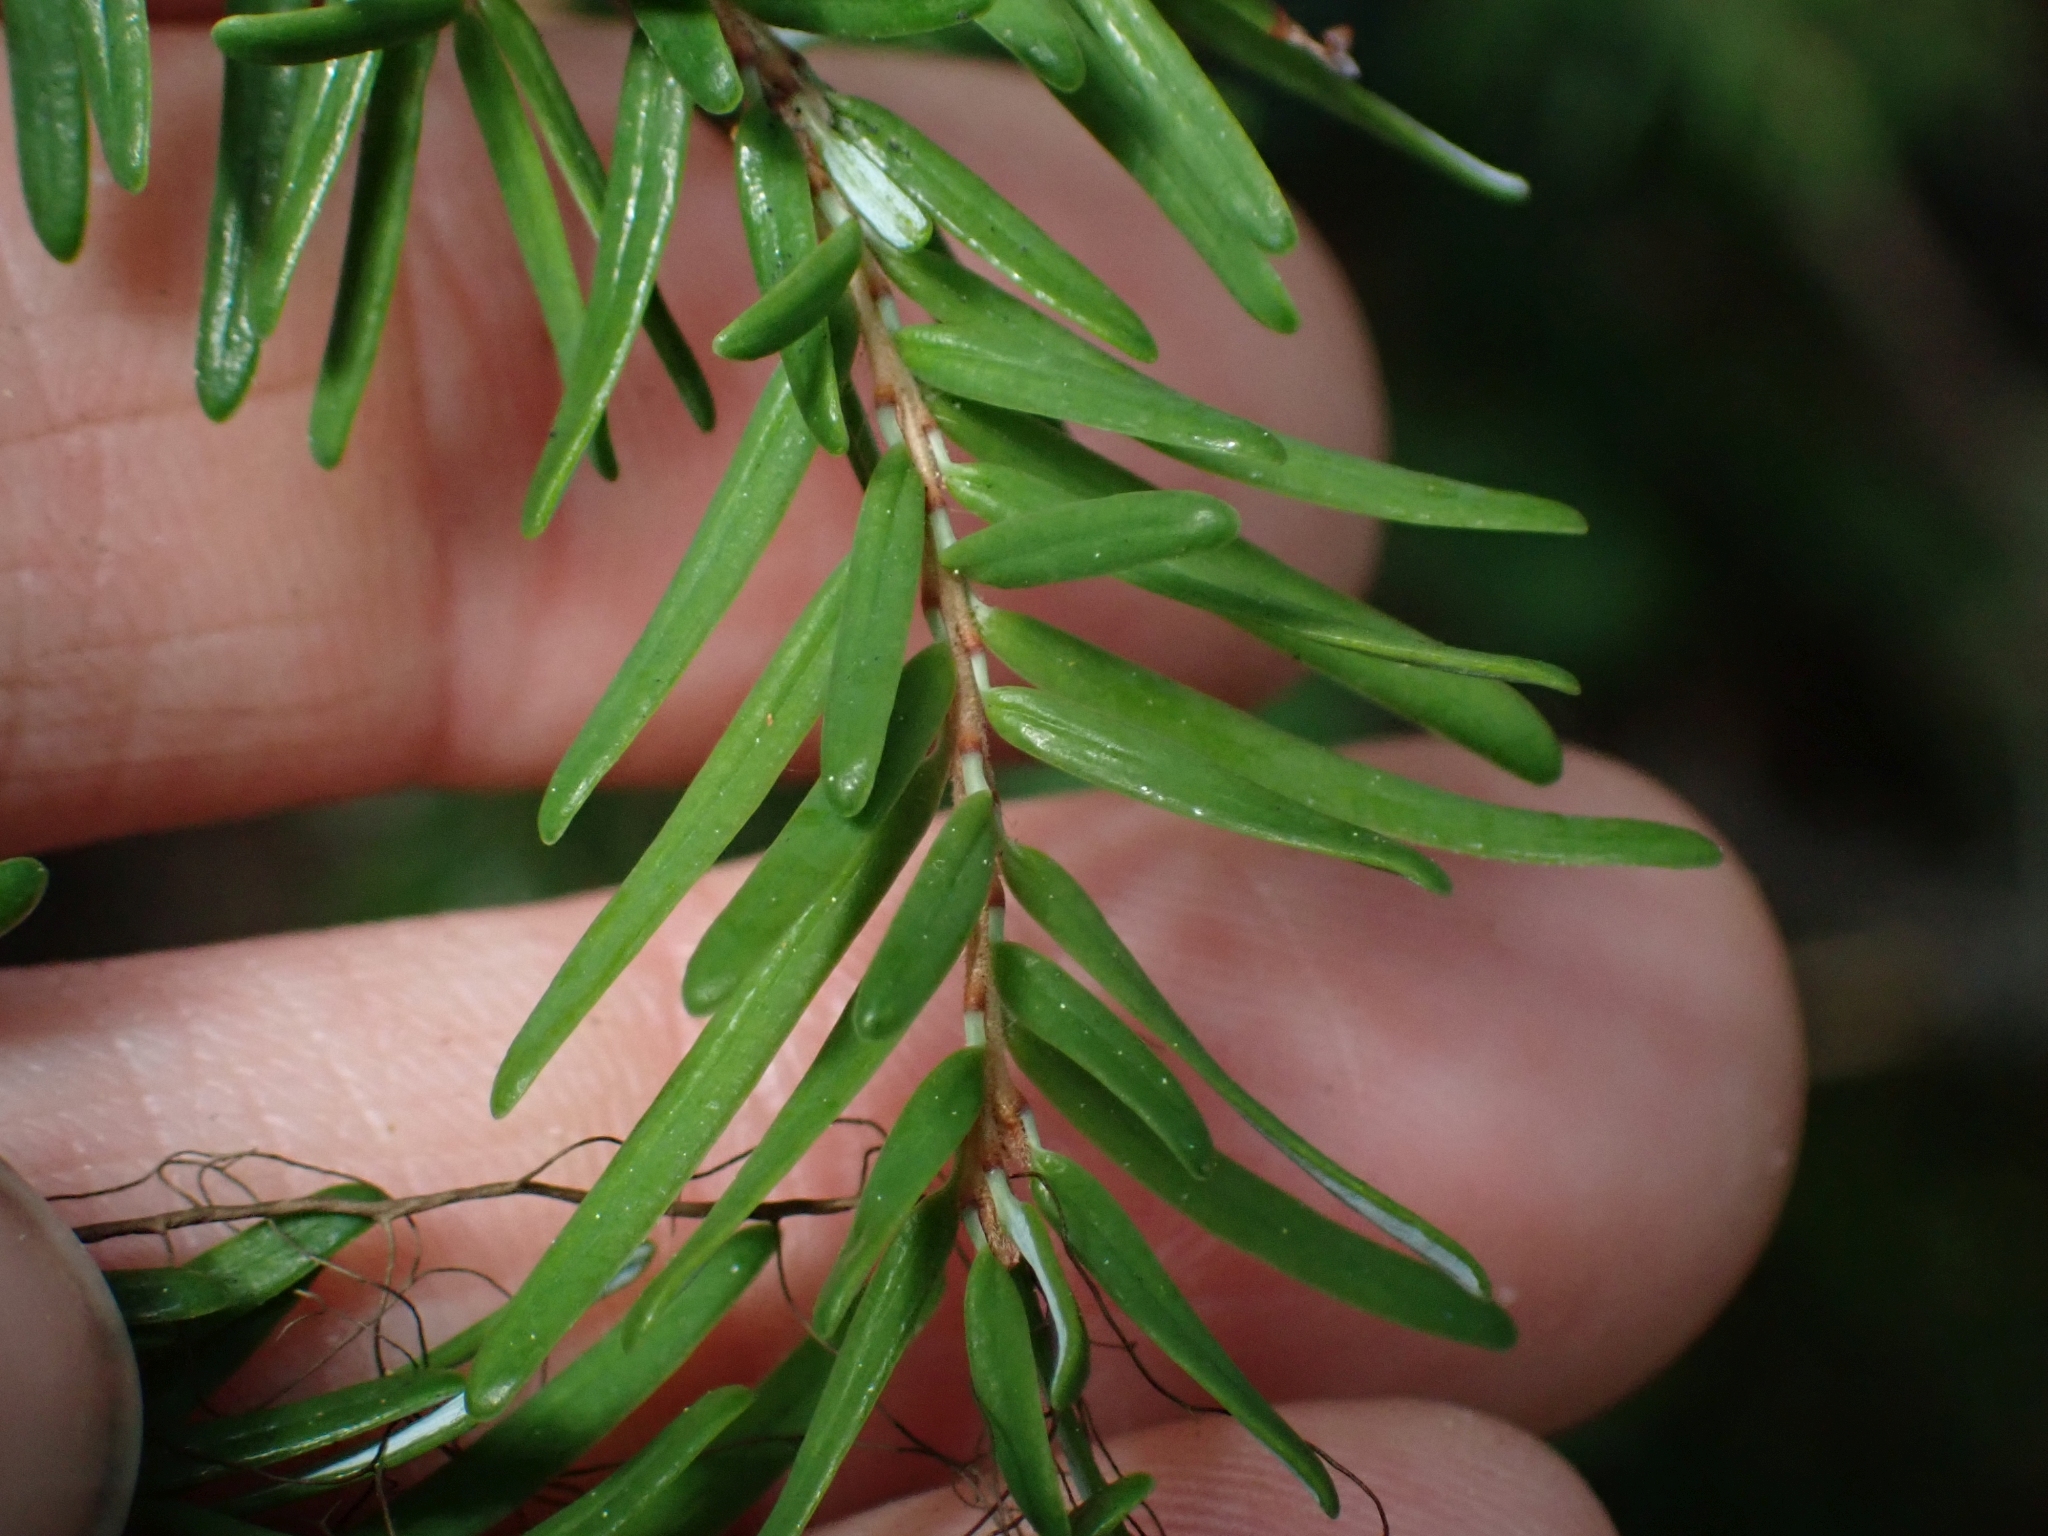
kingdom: Plantae
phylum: Tracheophyta
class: Pinopsida
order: Pinales
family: Pinaceae
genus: Tsuga
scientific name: Tsuga heterophylla
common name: Western hemlock
